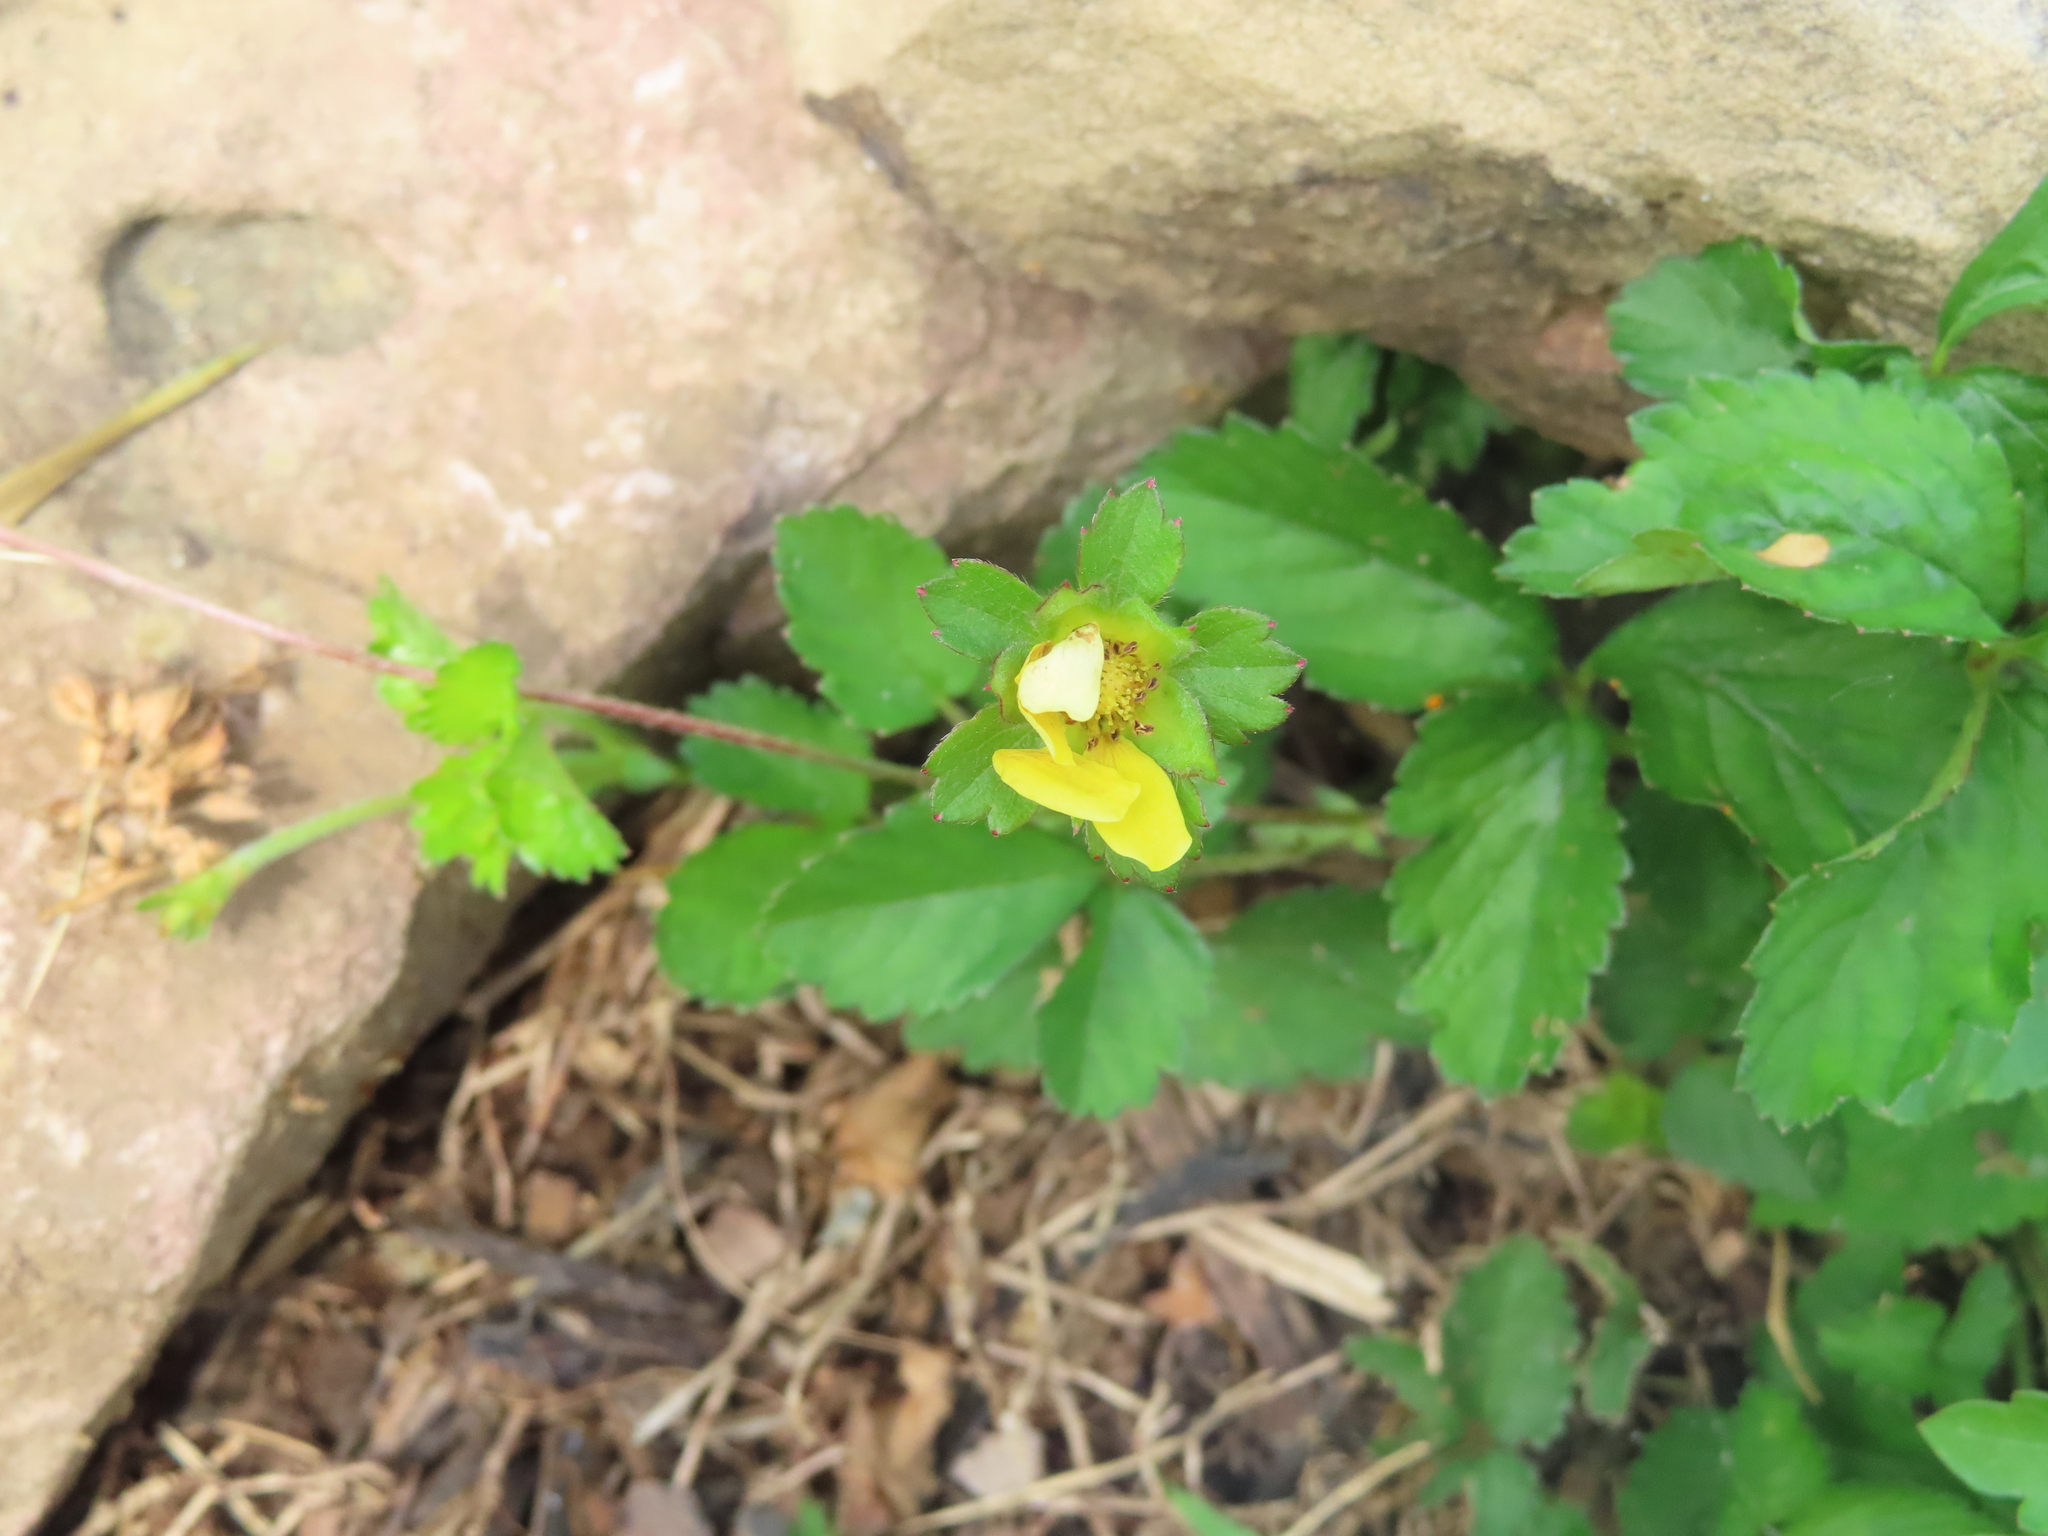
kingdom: Plantae
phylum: Tracheophyta
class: Magnoliopsida
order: Rosales
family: Rosaceae
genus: Potentilla
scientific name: Potentilla indica
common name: Yellow-flowered strawberry
